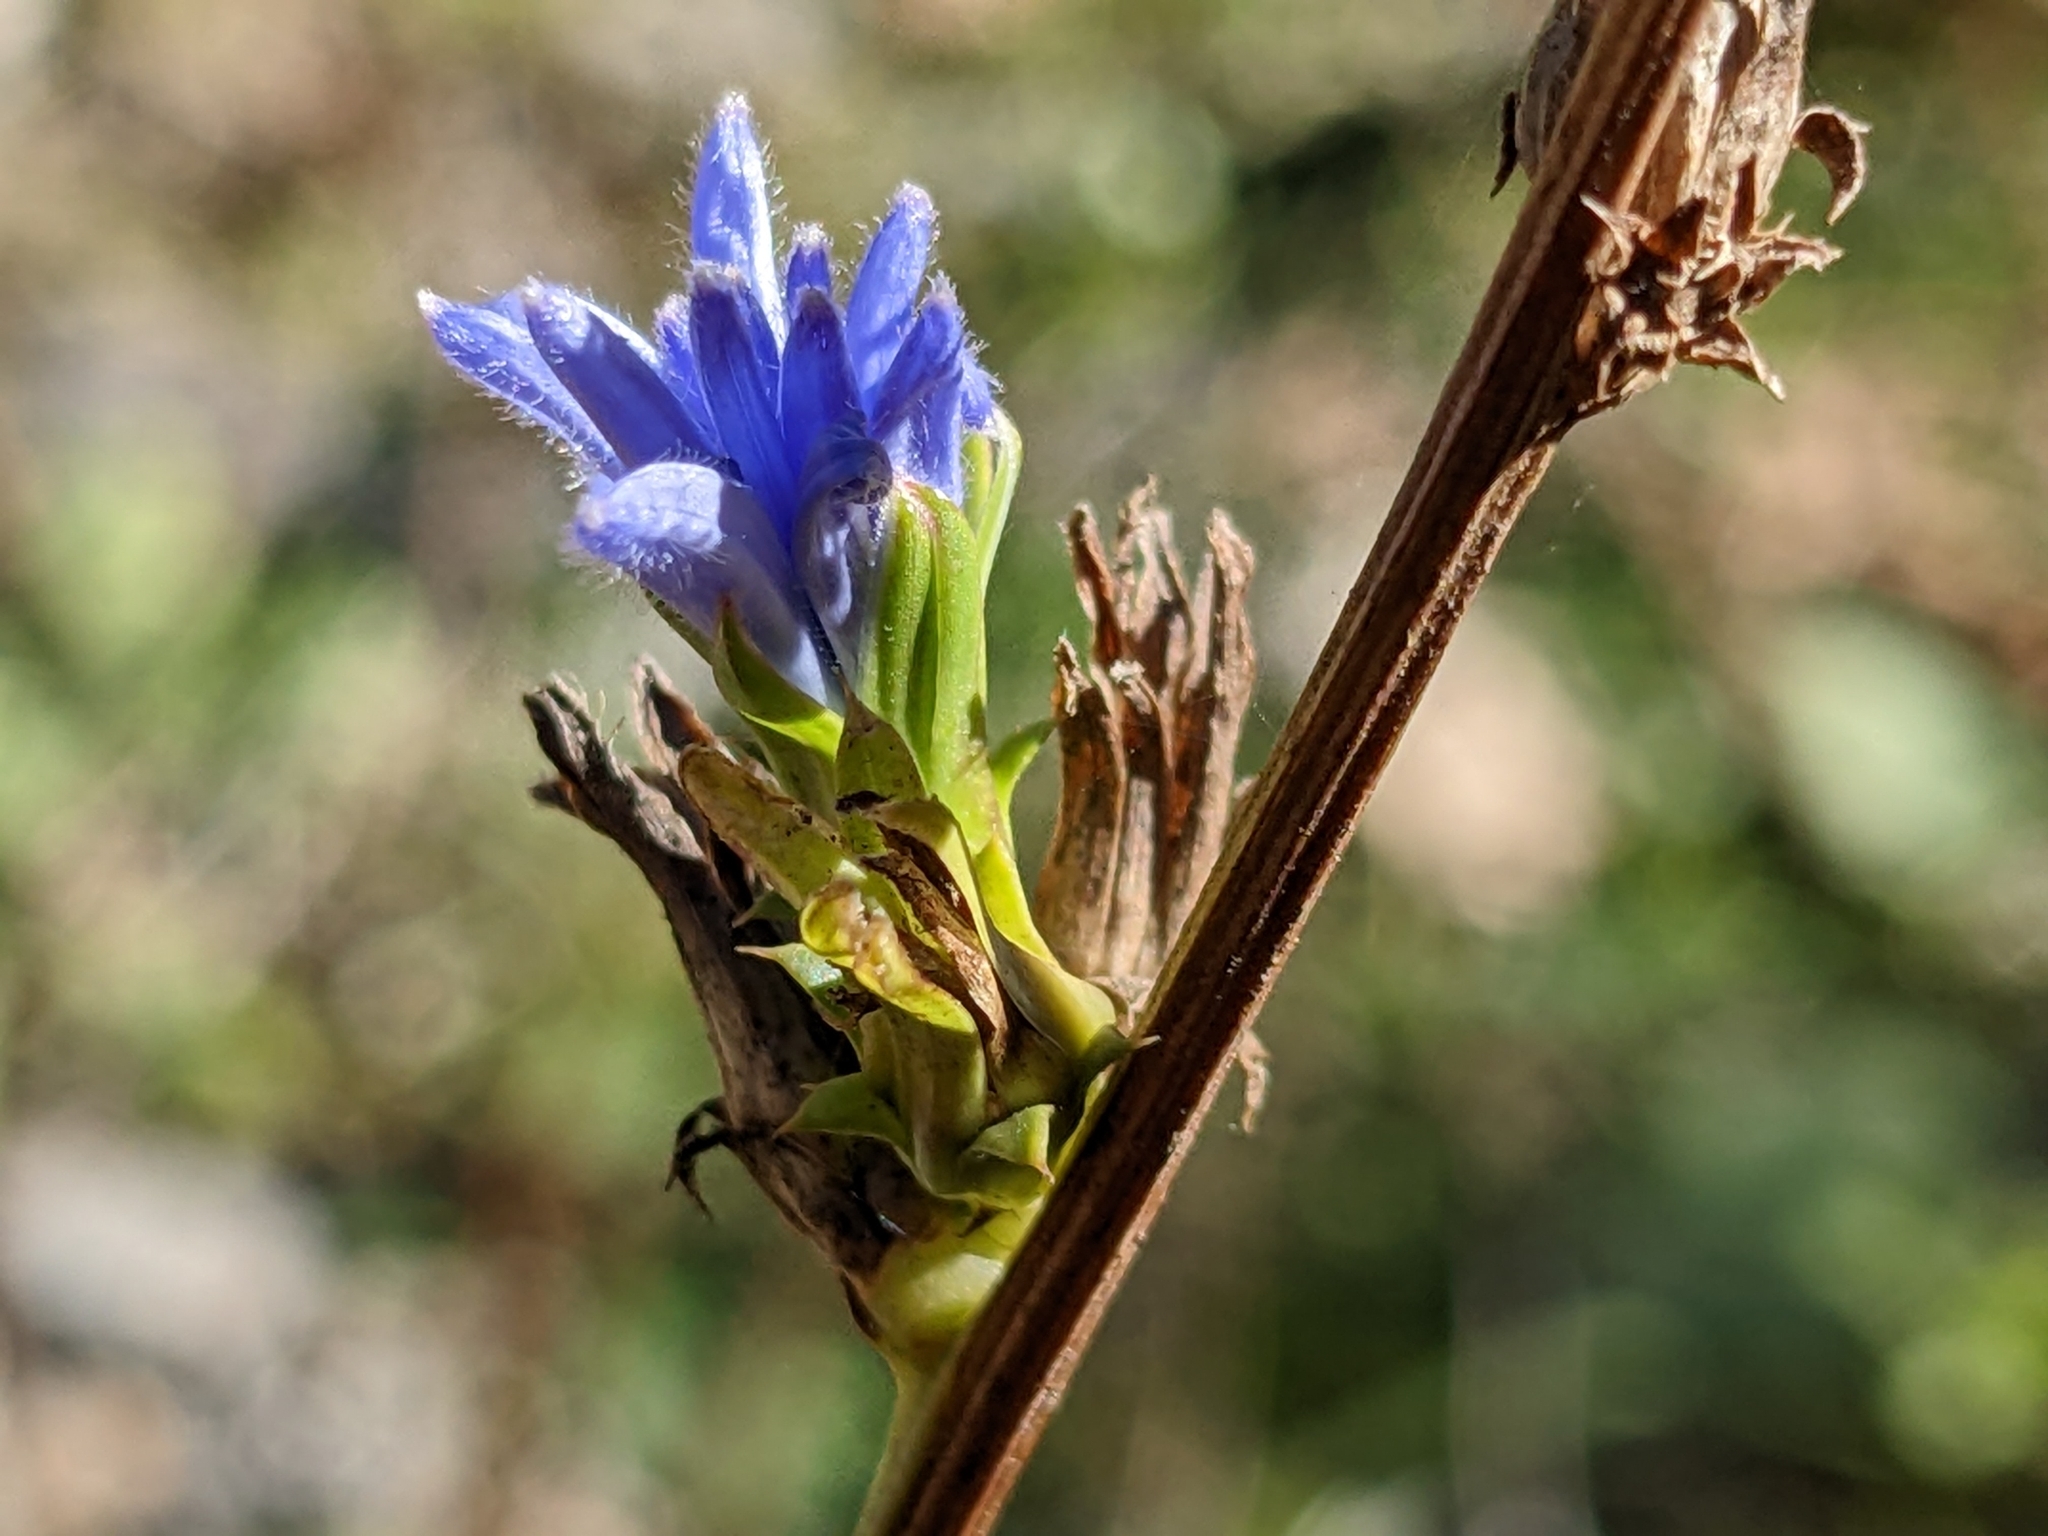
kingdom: Plantae
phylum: Tracheophyta
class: Magnoliopsida
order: Asterales
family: Asteraceae
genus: Cichorium
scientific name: Cichorium intybus
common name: Chicory
